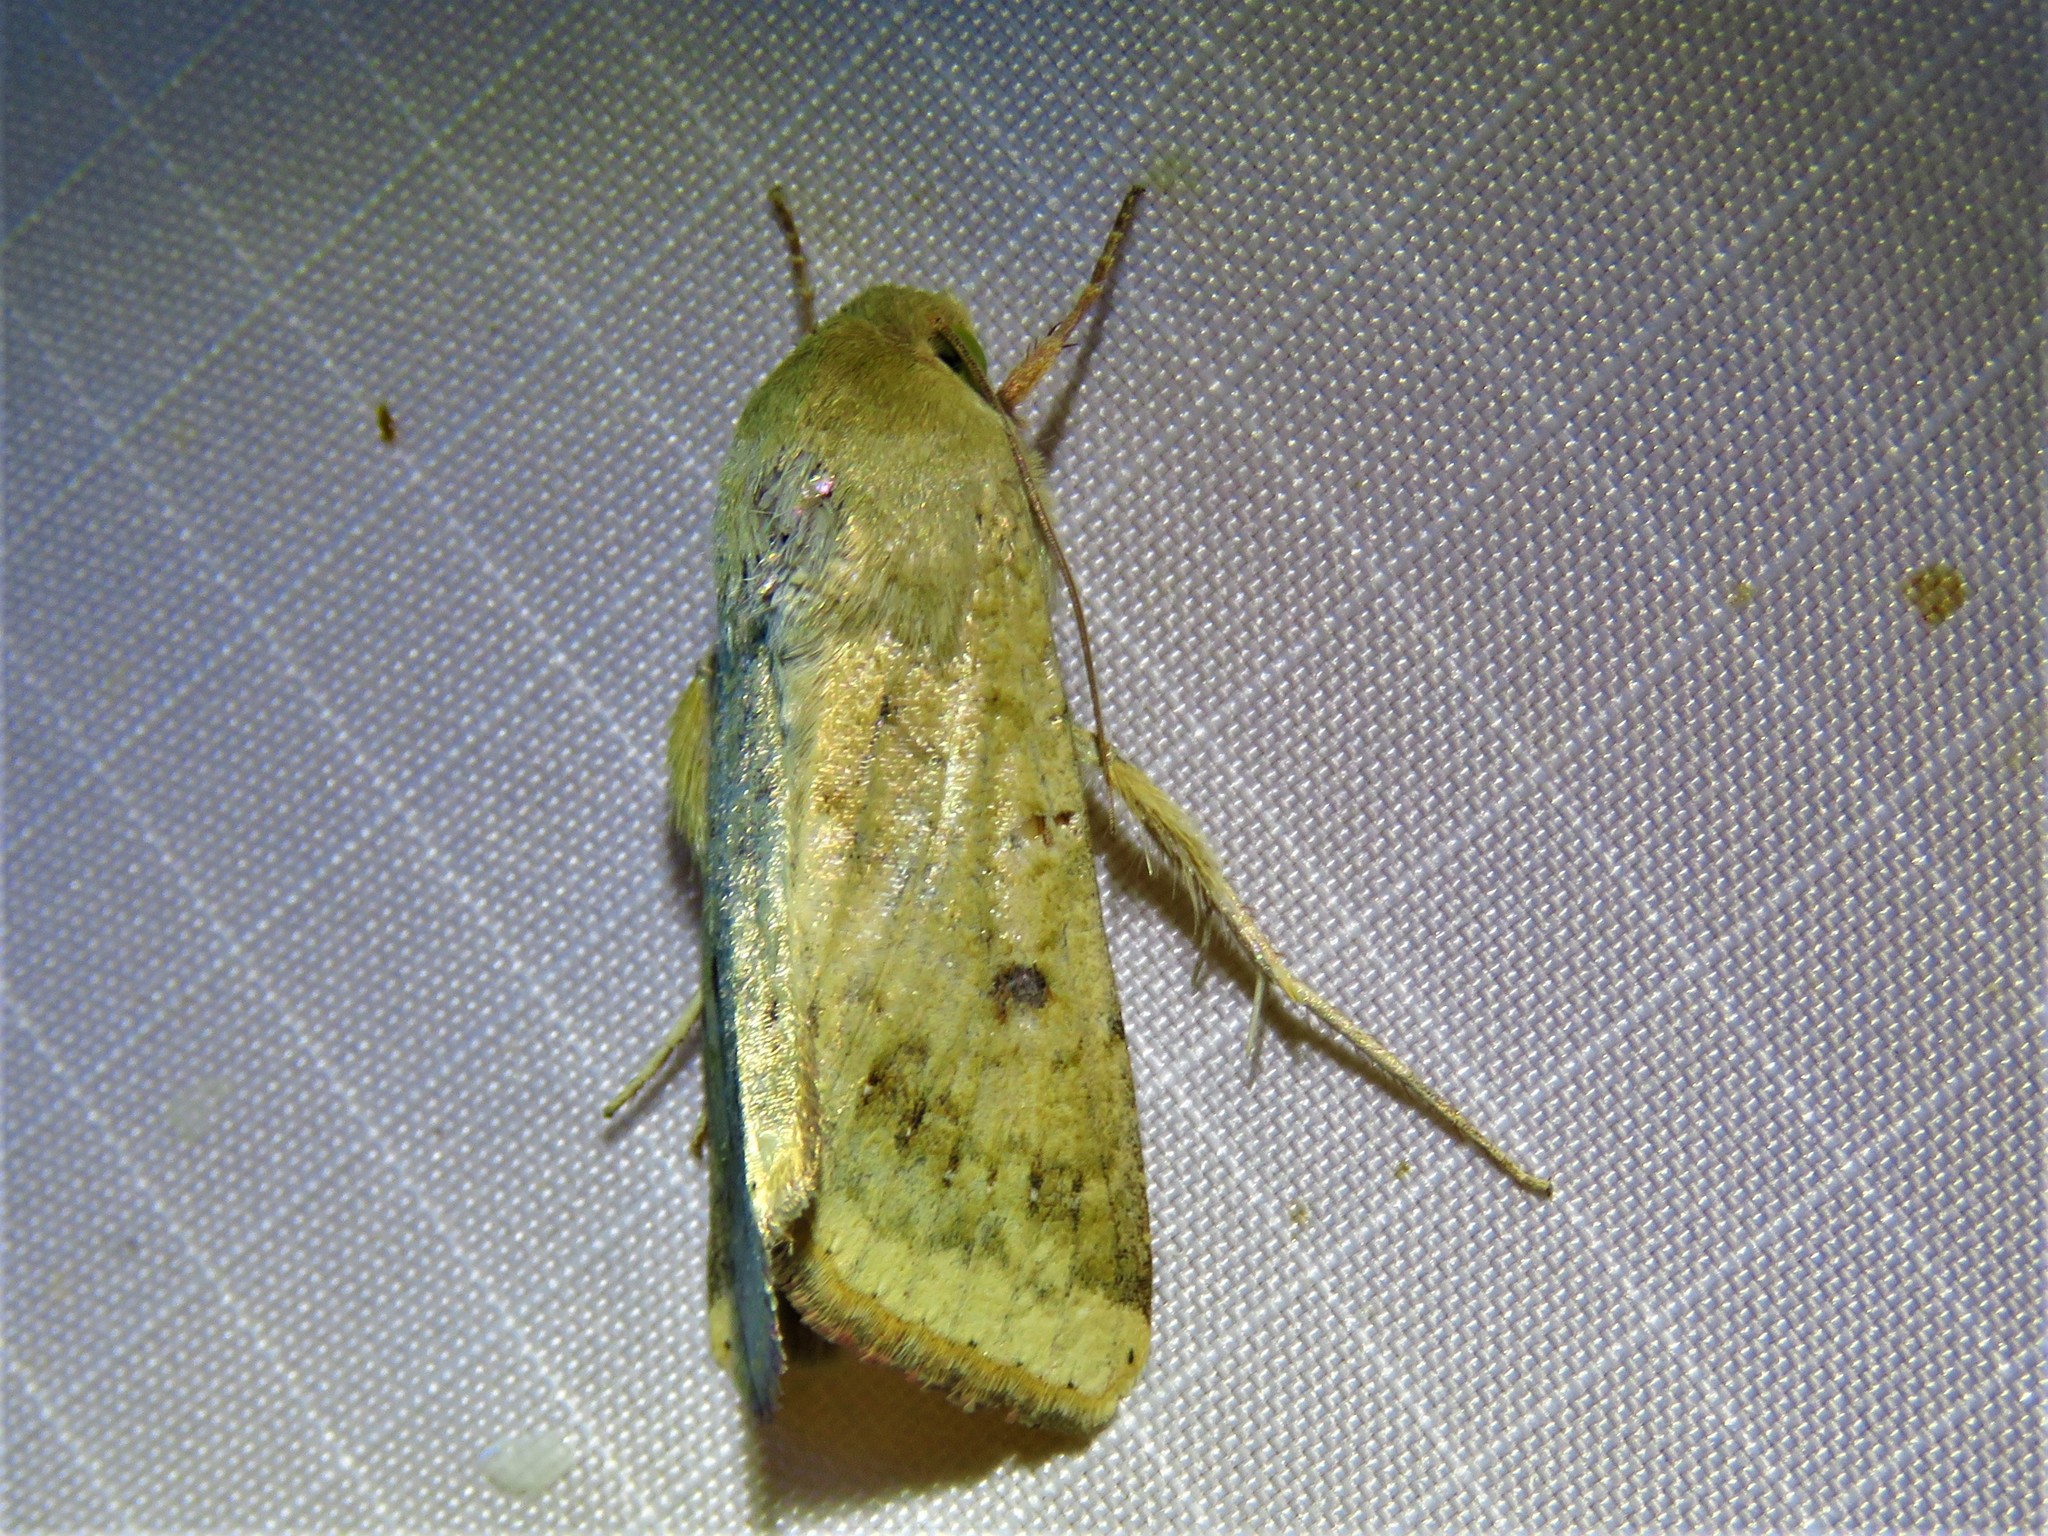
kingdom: Animalia
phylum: Arthropoda
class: Insecta
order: Lepidoptera
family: Noctuidae
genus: Helicoverpa
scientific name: Helicoverpa zea
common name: Bollworm
